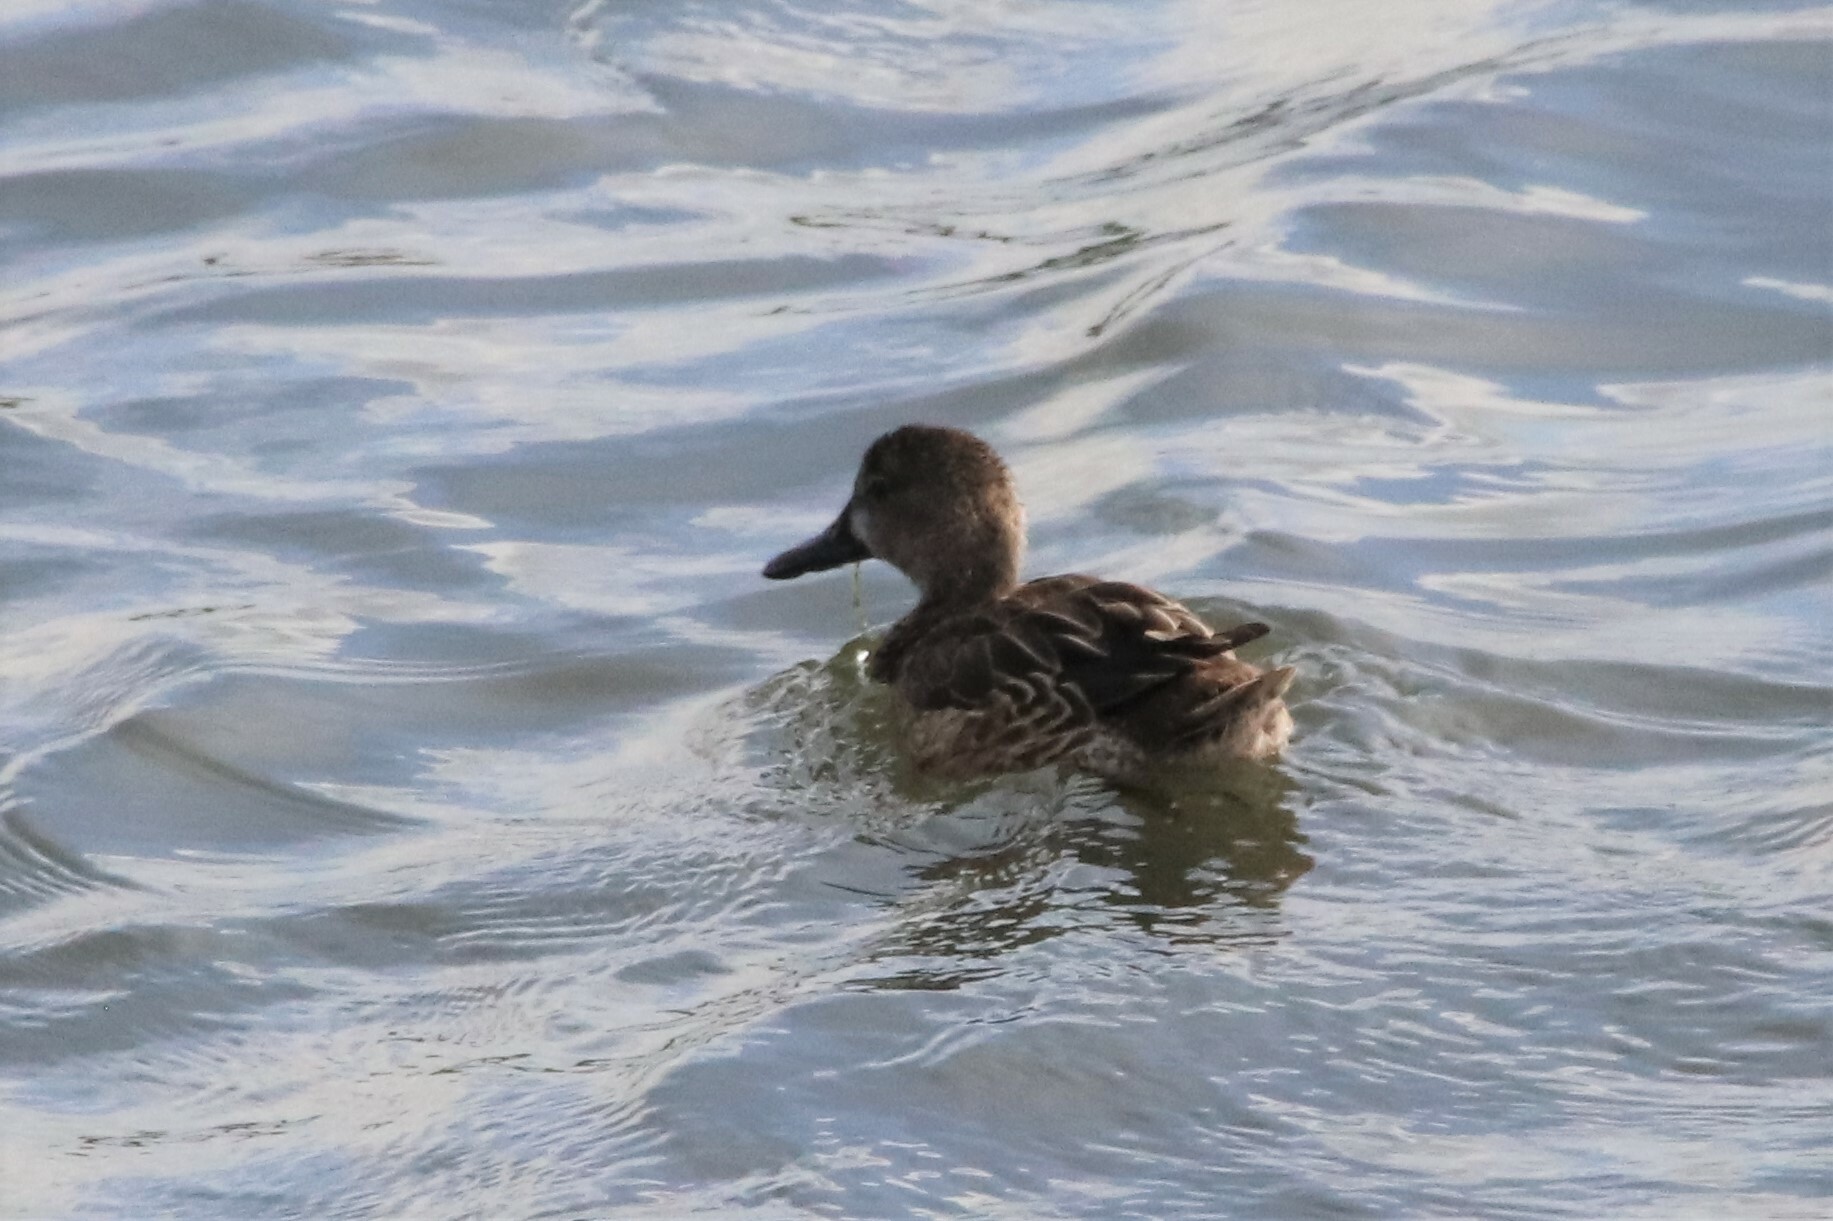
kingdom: Animalia
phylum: Chordata
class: Aves
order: Anseriformes
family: Anatidae
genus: Spatula
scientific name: Spatula discors
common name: Blue-winged teal
